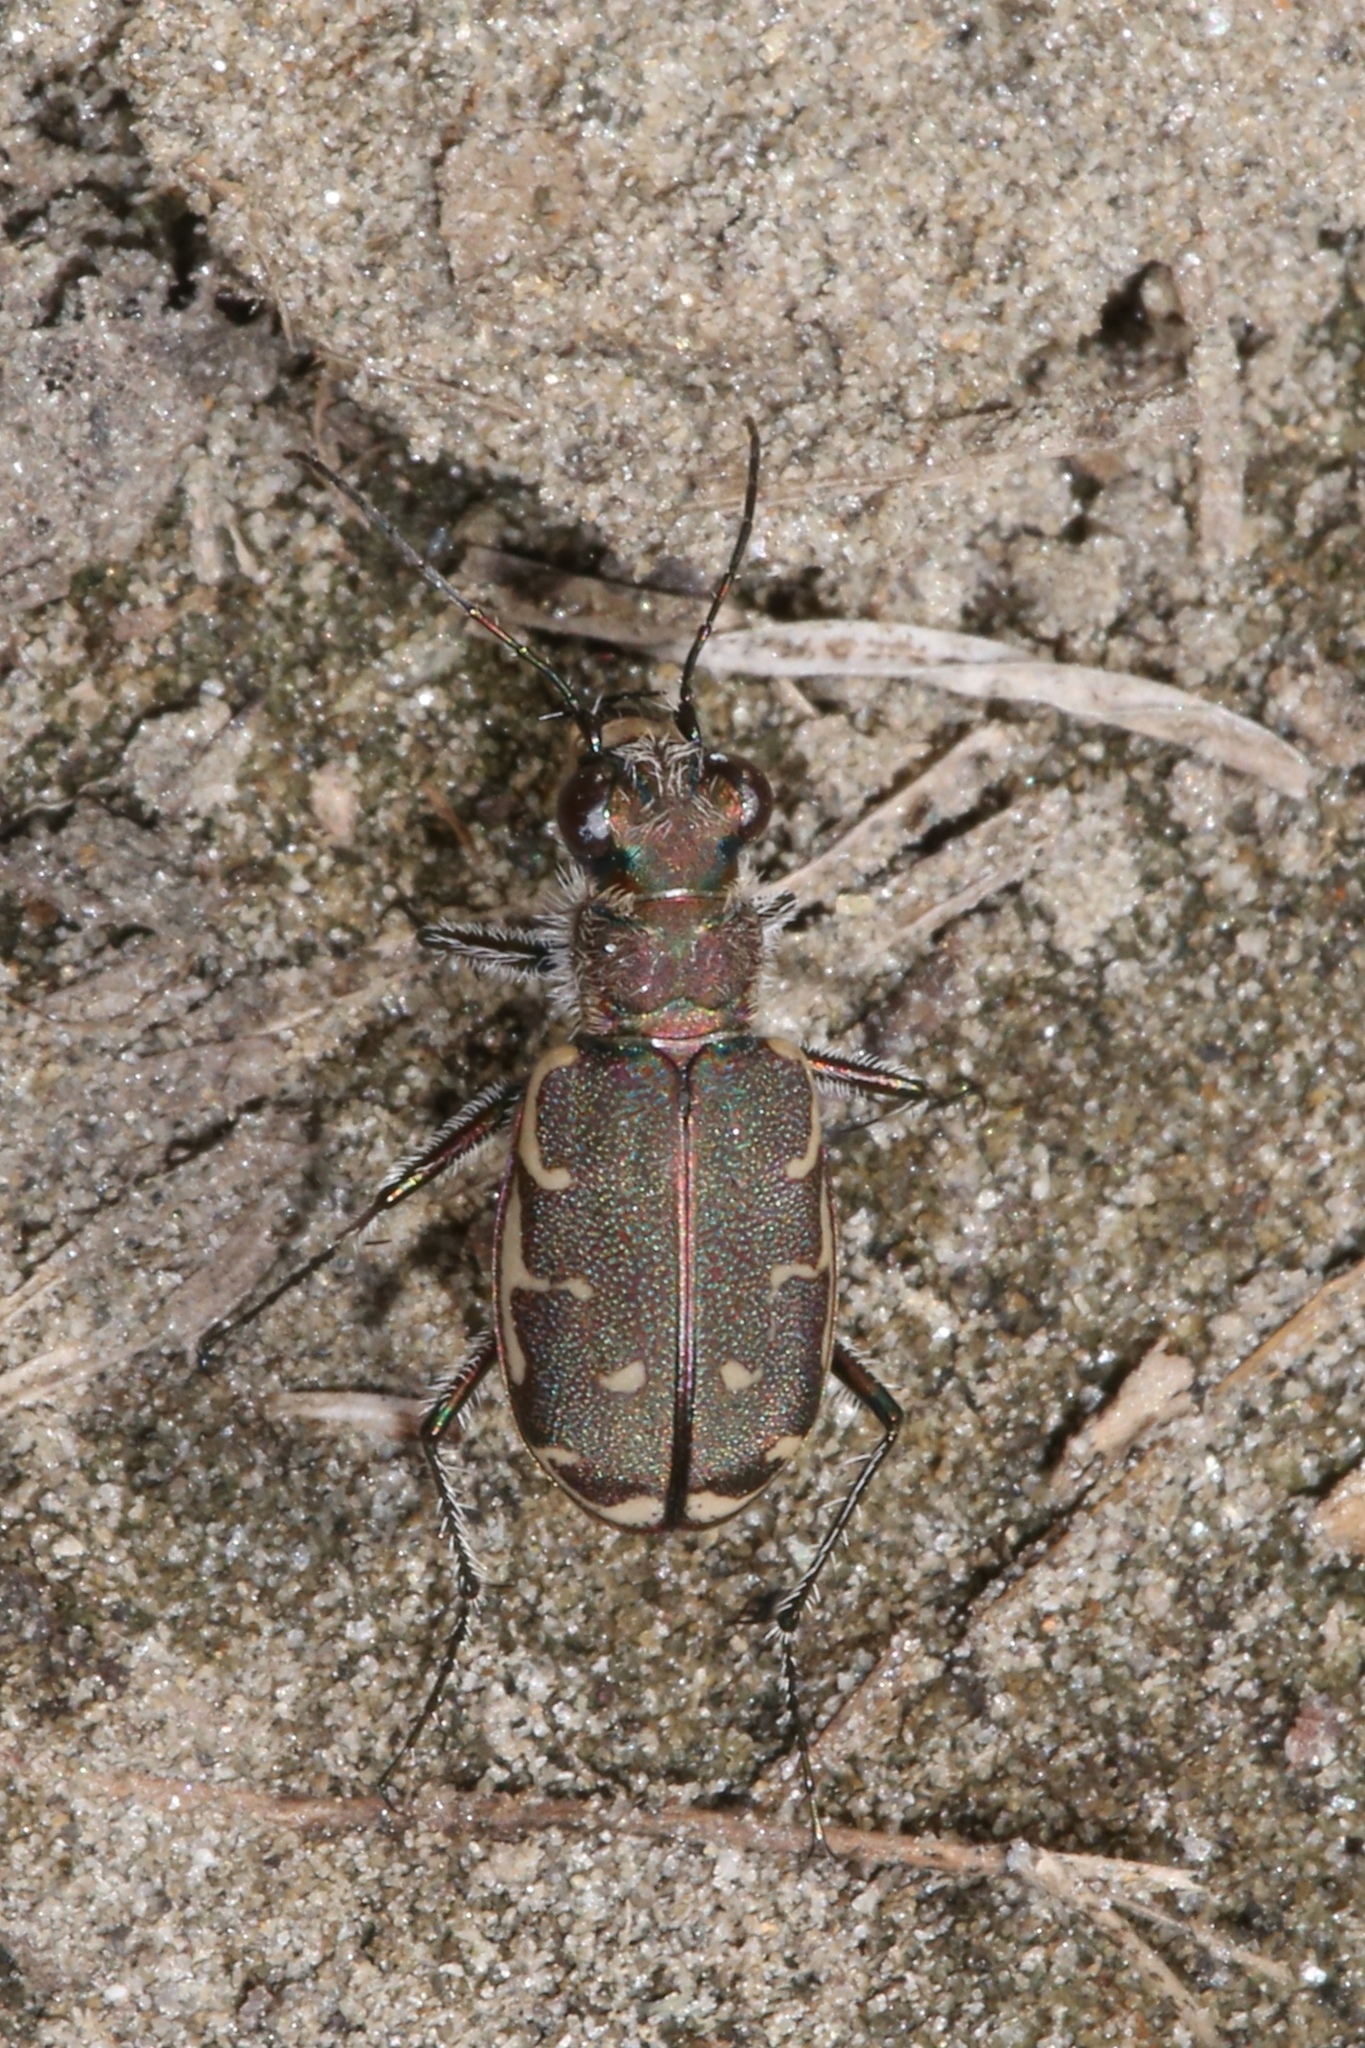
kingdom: Animalia
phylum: Arthropoda
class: Insecta
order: Coleoptera
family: Carabidae
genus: Cicindela
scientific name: Cicindela repanda
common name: Bronzed tiger beetle
